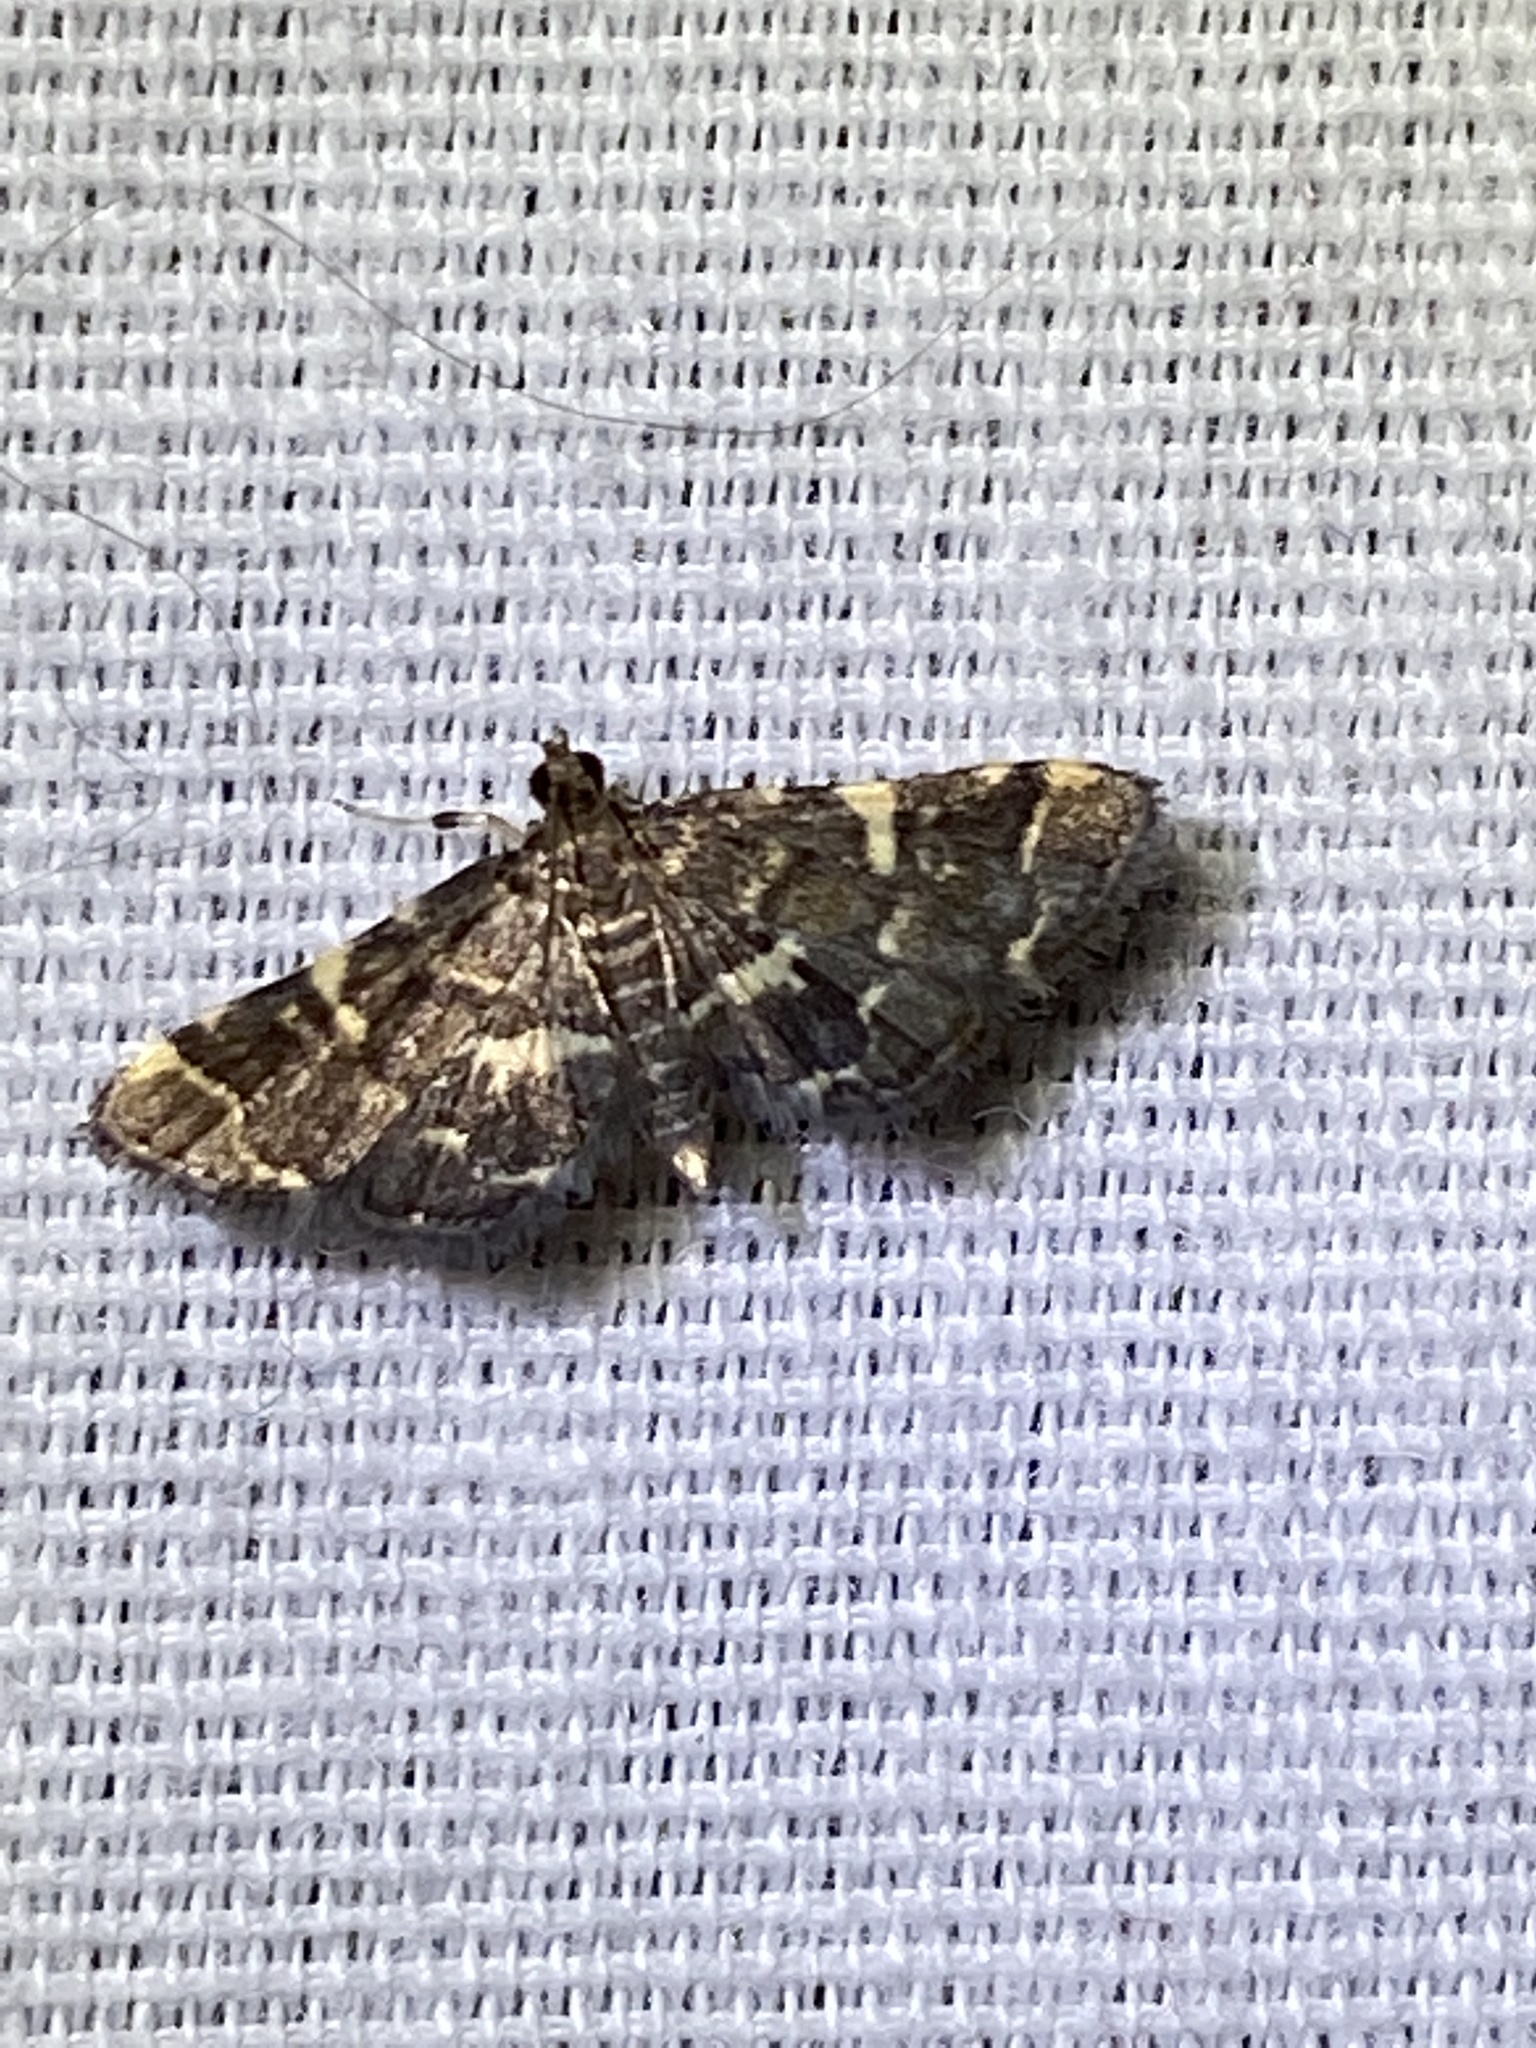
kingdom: Animalia
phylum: Arthropoda
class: Insecta
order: Lepidoptera
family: Crambidae
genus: Anageshna
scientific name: Anageshna primordialis
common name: Yellow-spotted webworm moth
